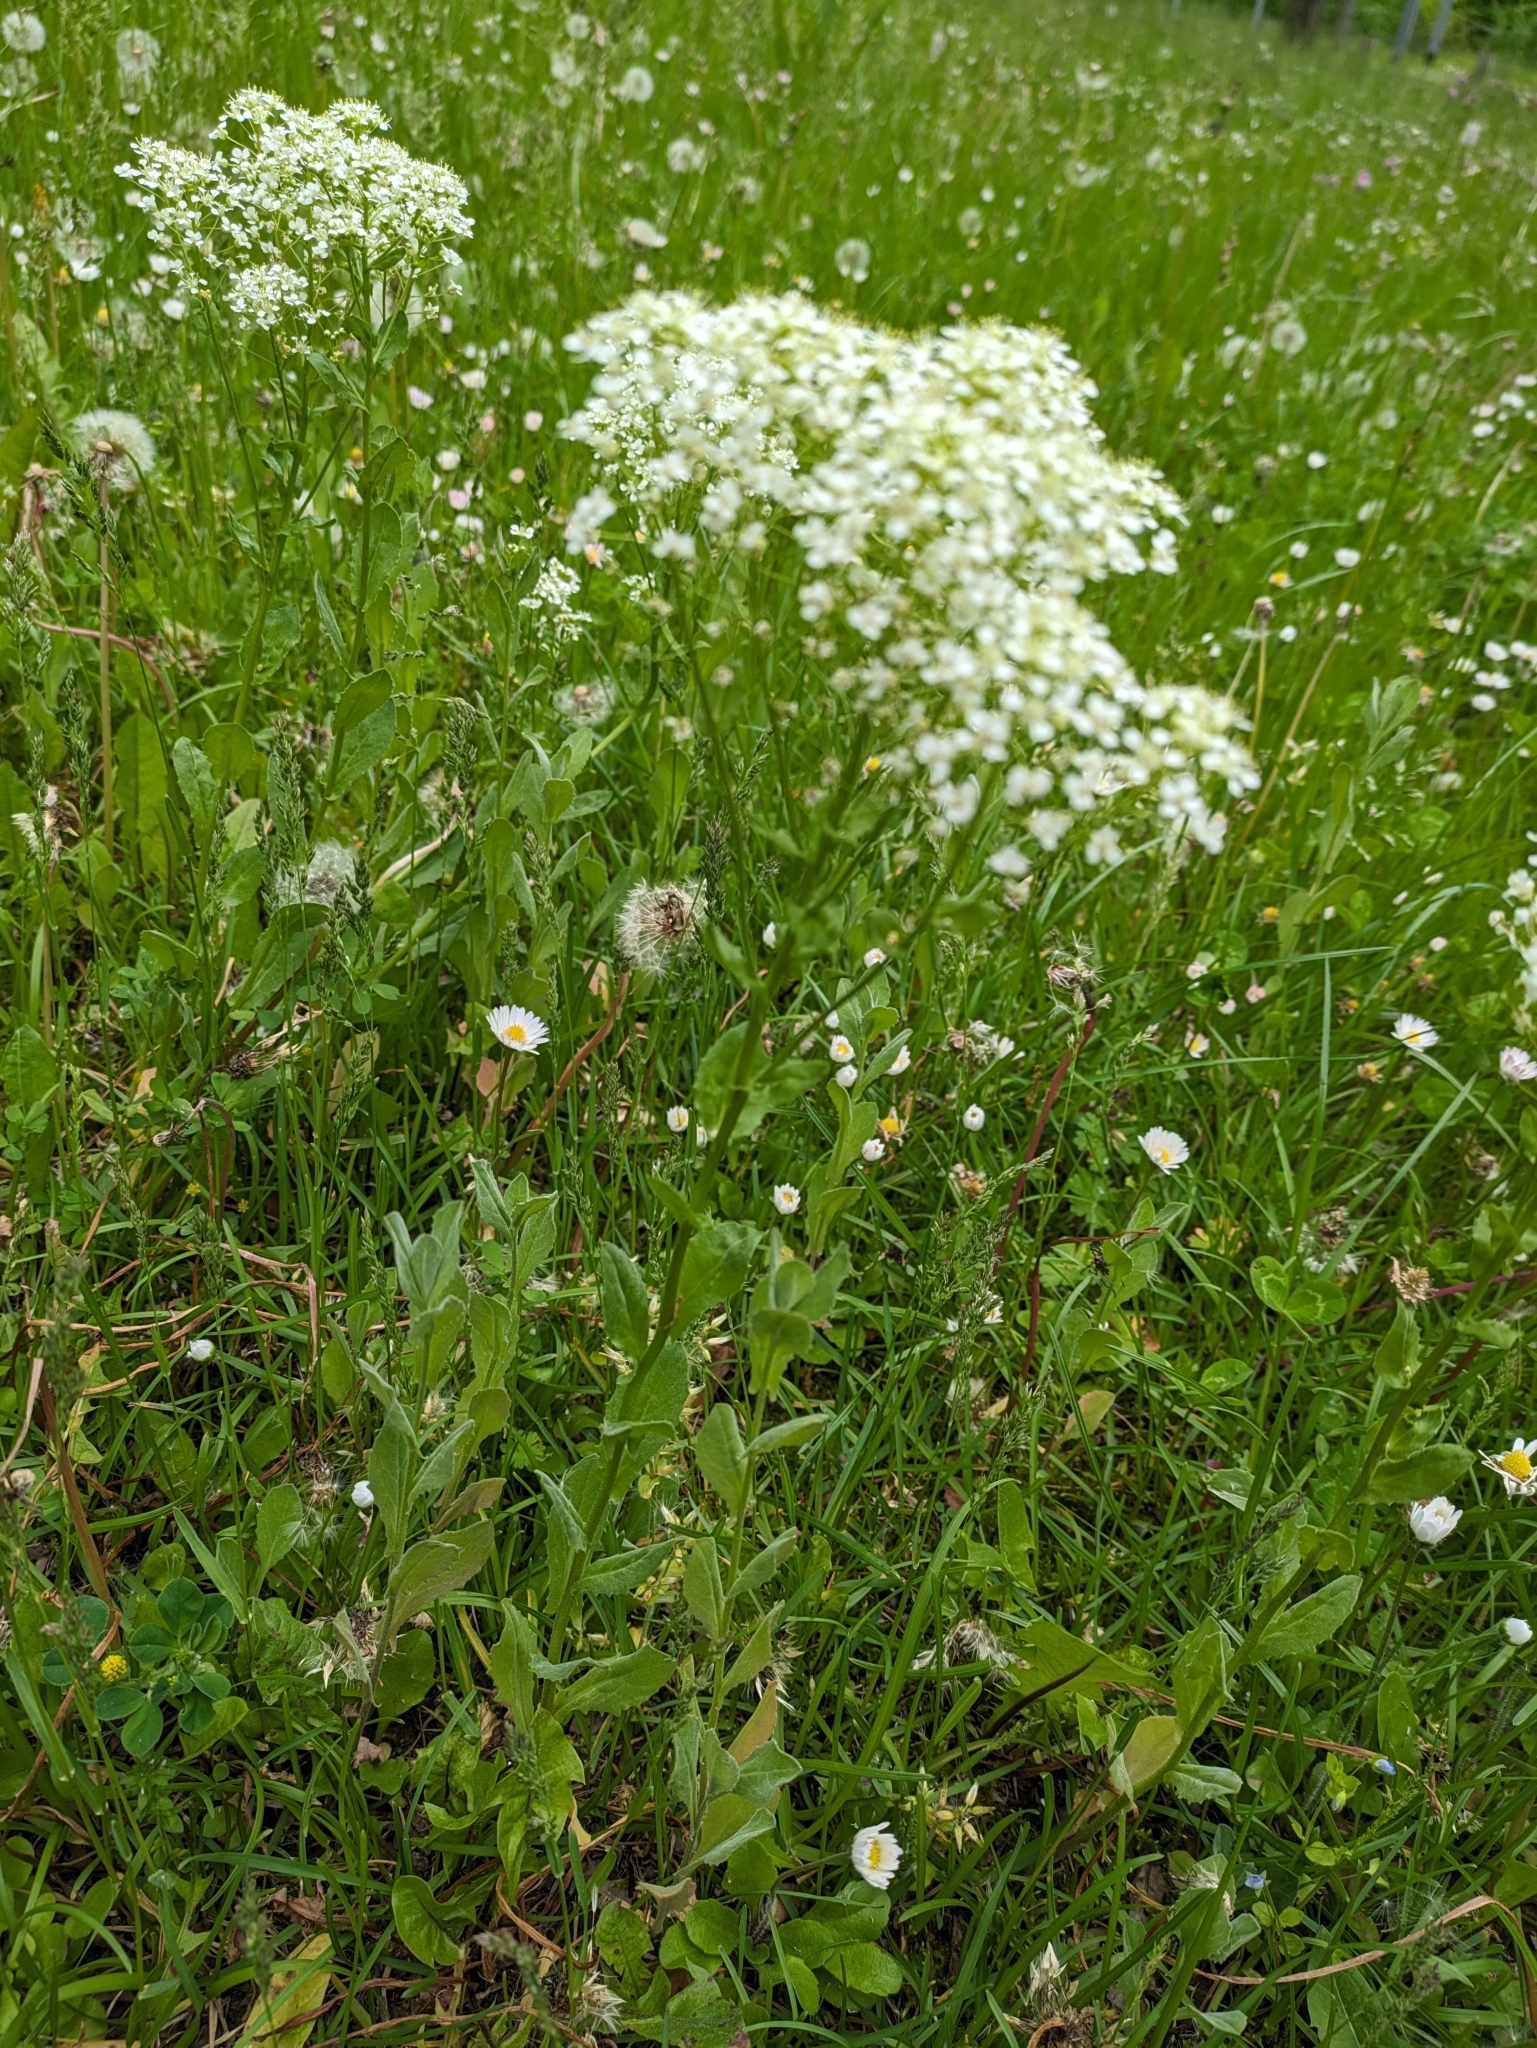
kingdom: Plantae
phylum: Tracheophyta
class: Magnoliopsida
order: Brassicales
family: Brassicaceae
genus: Lepidium
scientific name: Lepidium draba
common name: Hoary cress
